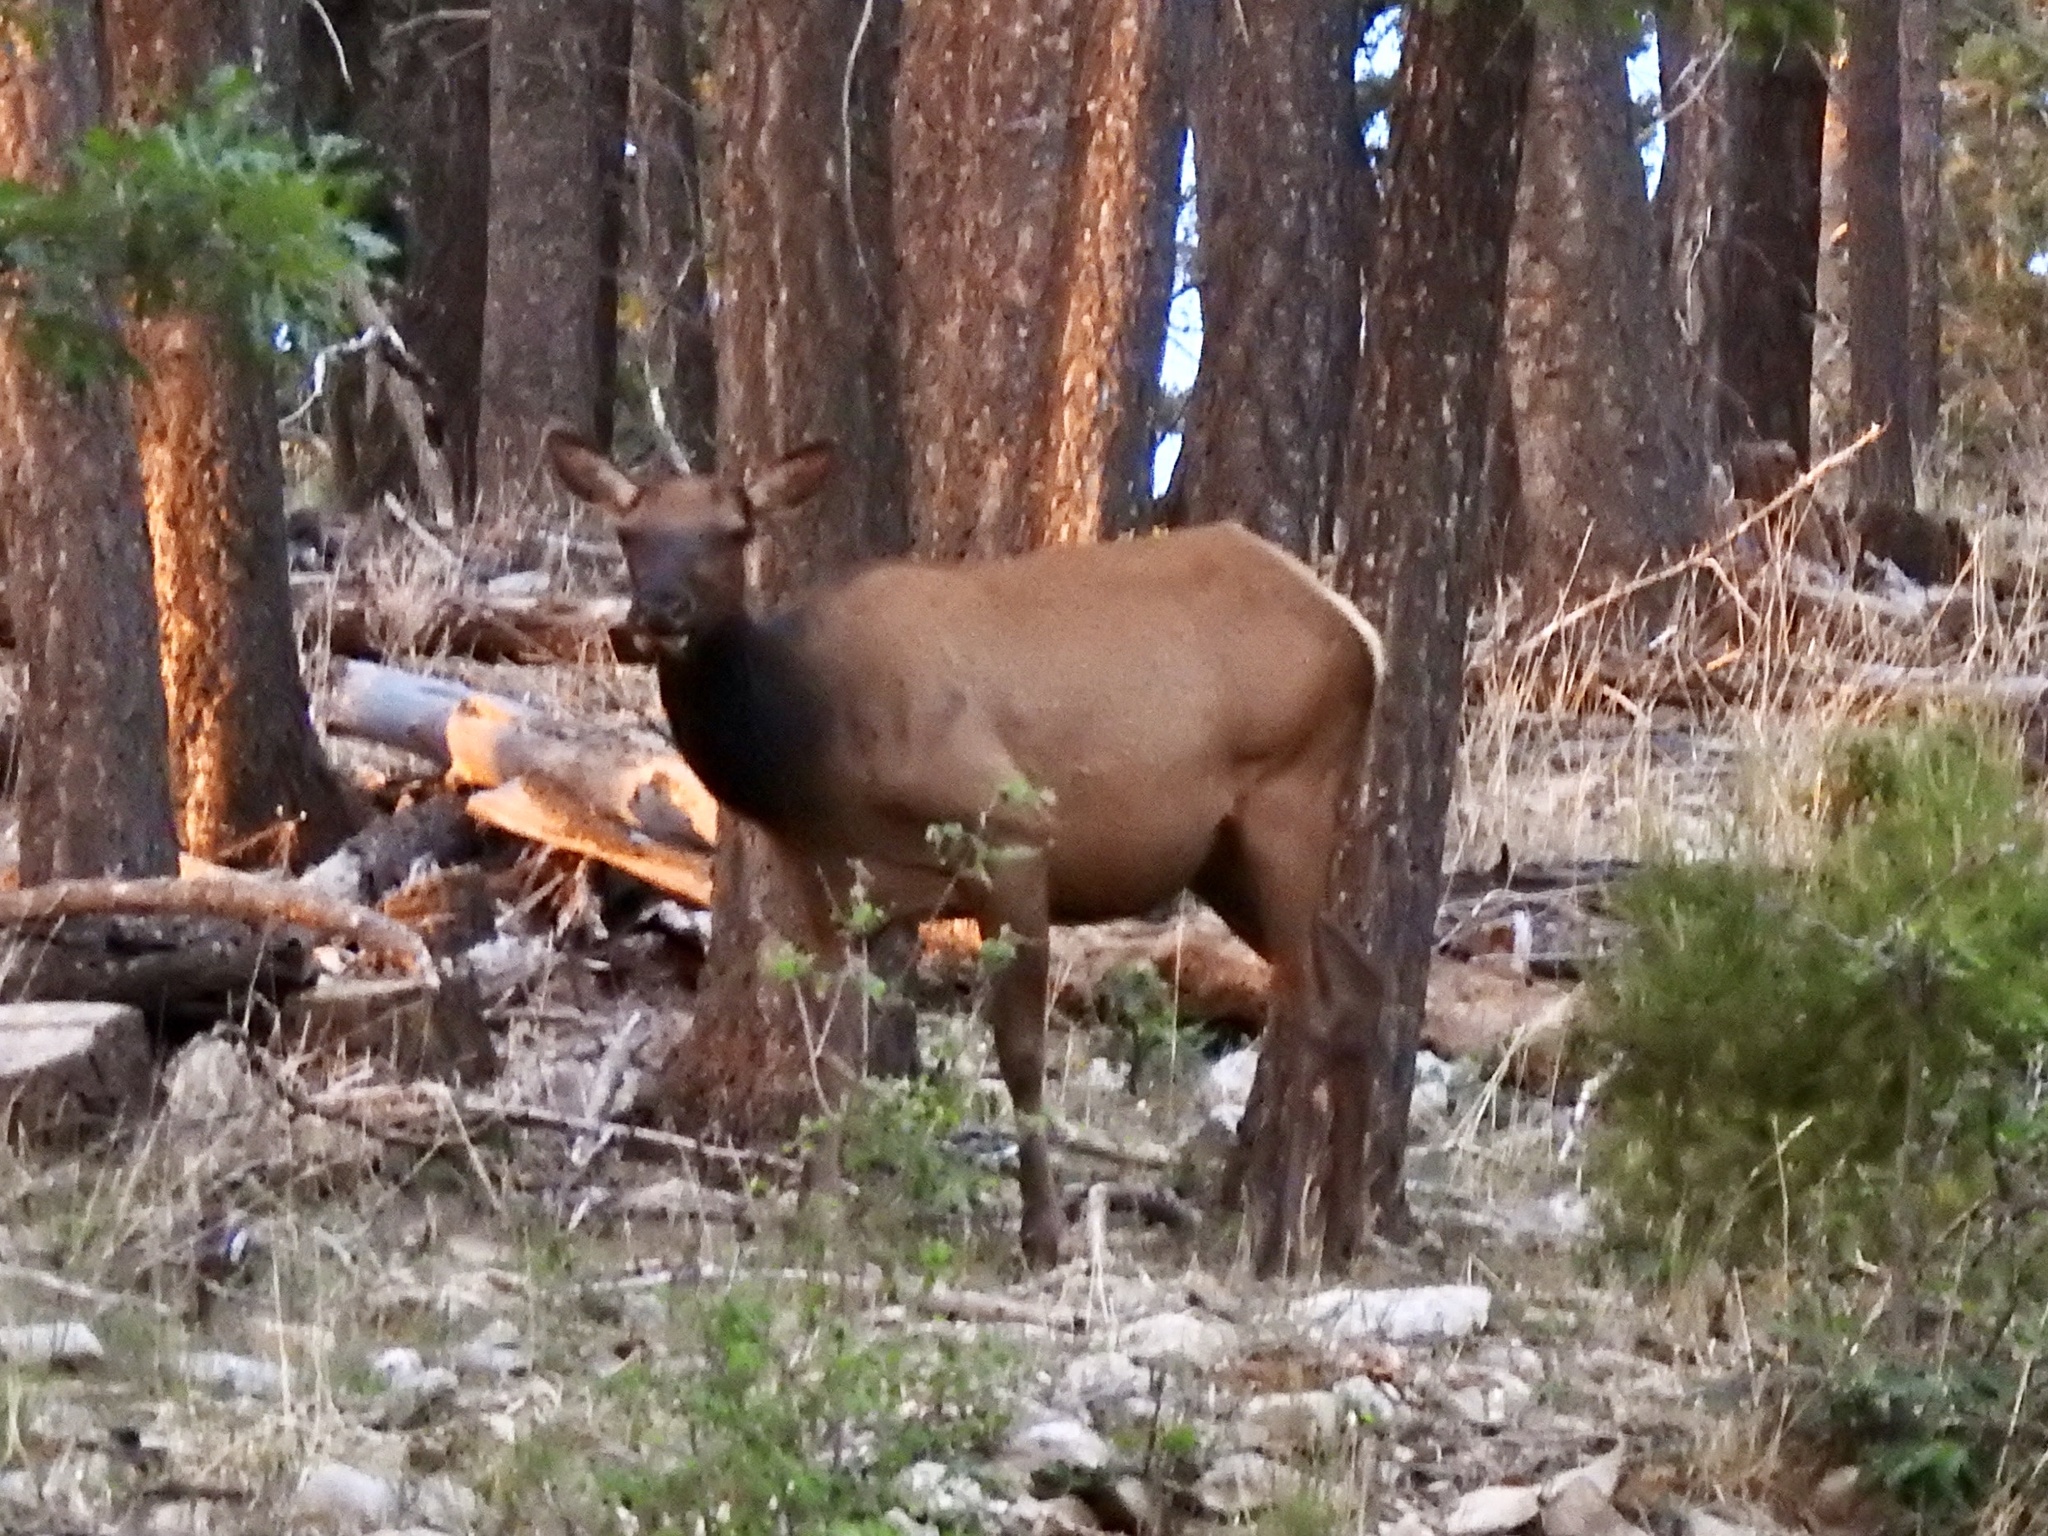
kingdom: Animalia
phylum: Chordata
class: Mammalia
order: Artiodactyla
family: Cervidae
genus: Cervus
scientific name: Cervus elaphus
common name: Red deer
